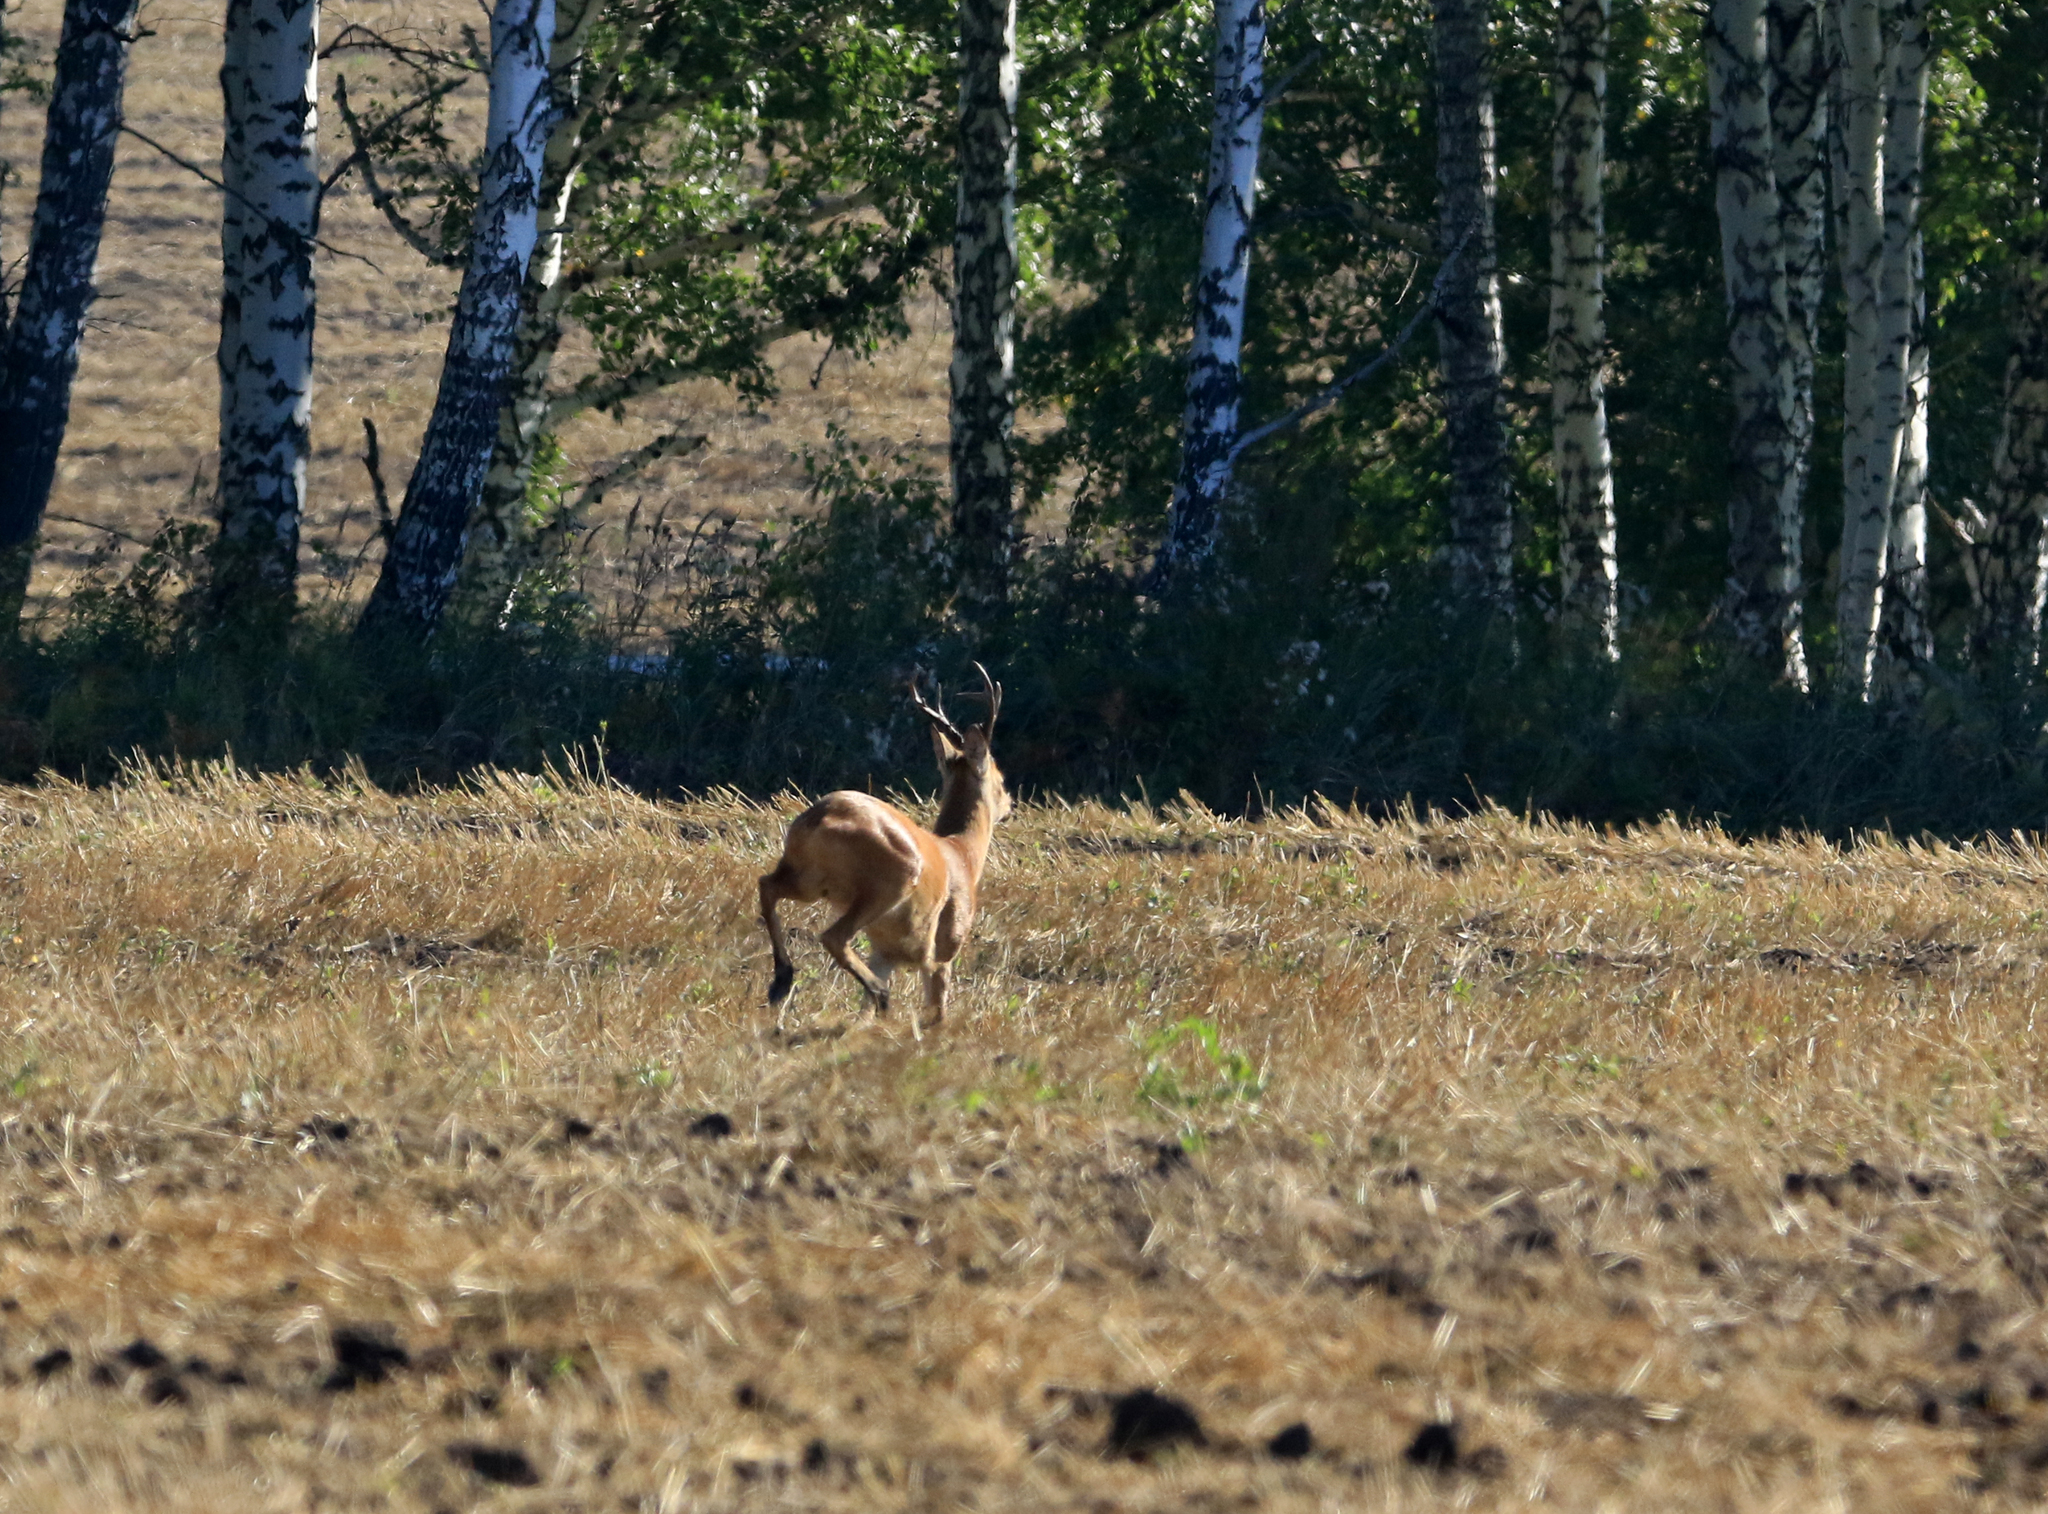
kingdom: Animalia
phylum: Chordata
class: Mammalia
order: Artiodactyla
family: Cervidae
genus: Capreolus
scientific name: Capreolus pygargus
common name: Siberian roe
